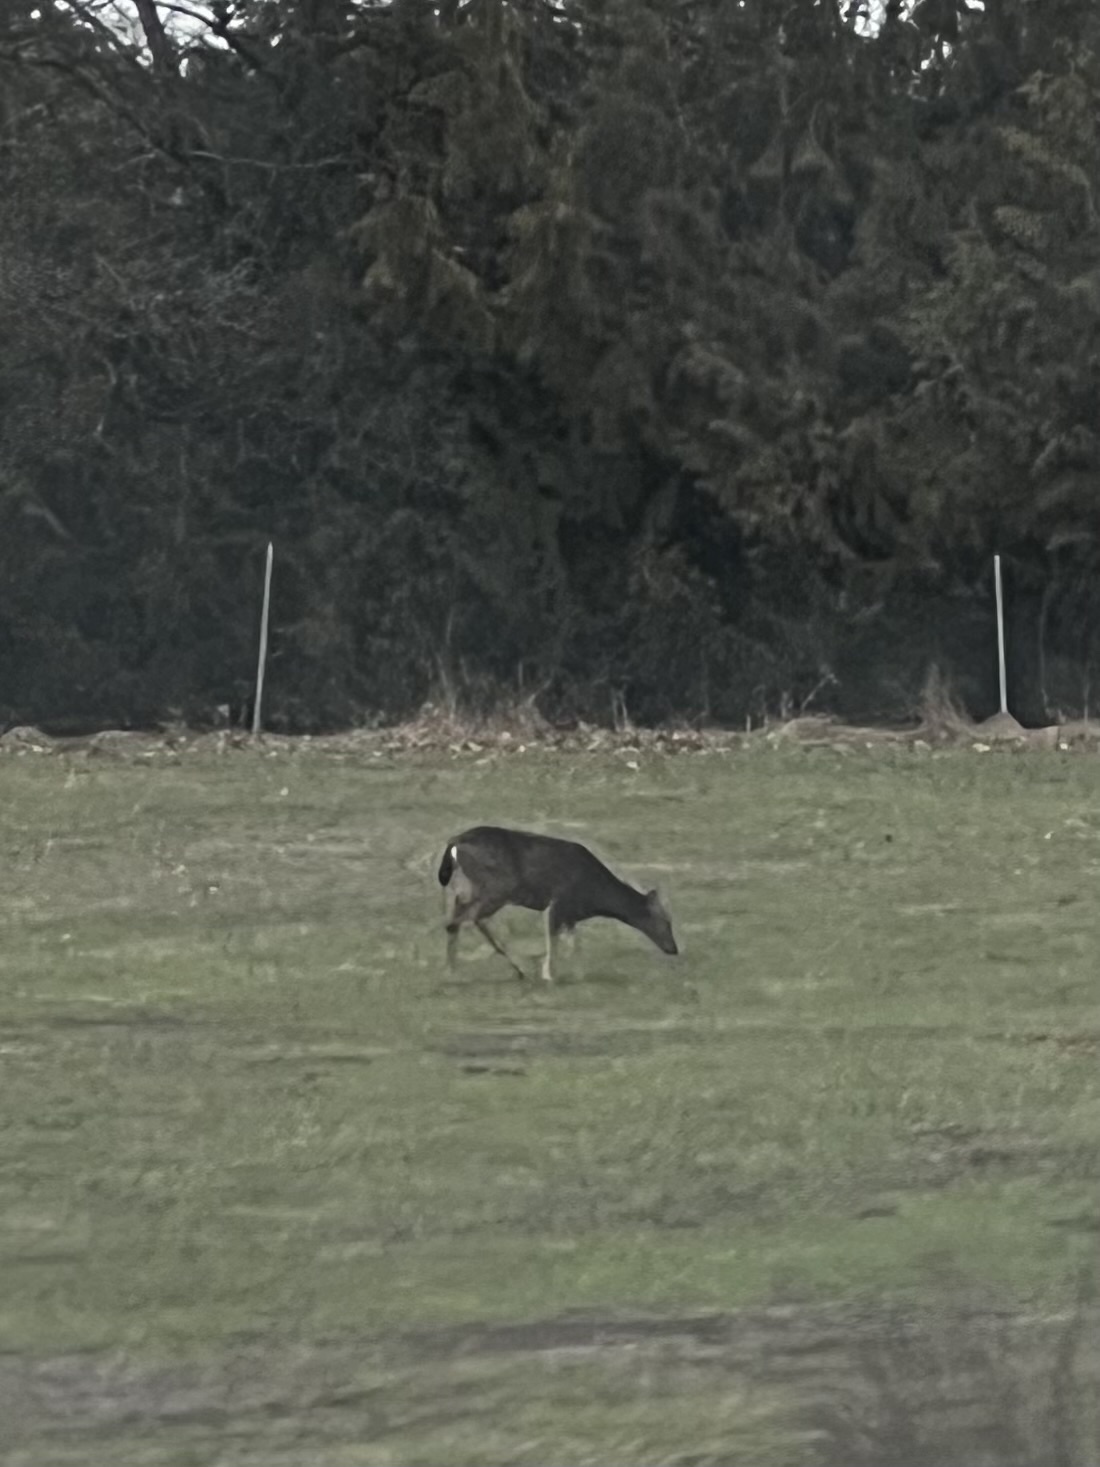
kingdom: Animalia
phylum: Chordata
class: Mammalia
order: Artiodactyla
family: Cervidae
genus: Odocoileus
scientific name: Odocoileus hemionus
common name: Mule deer
